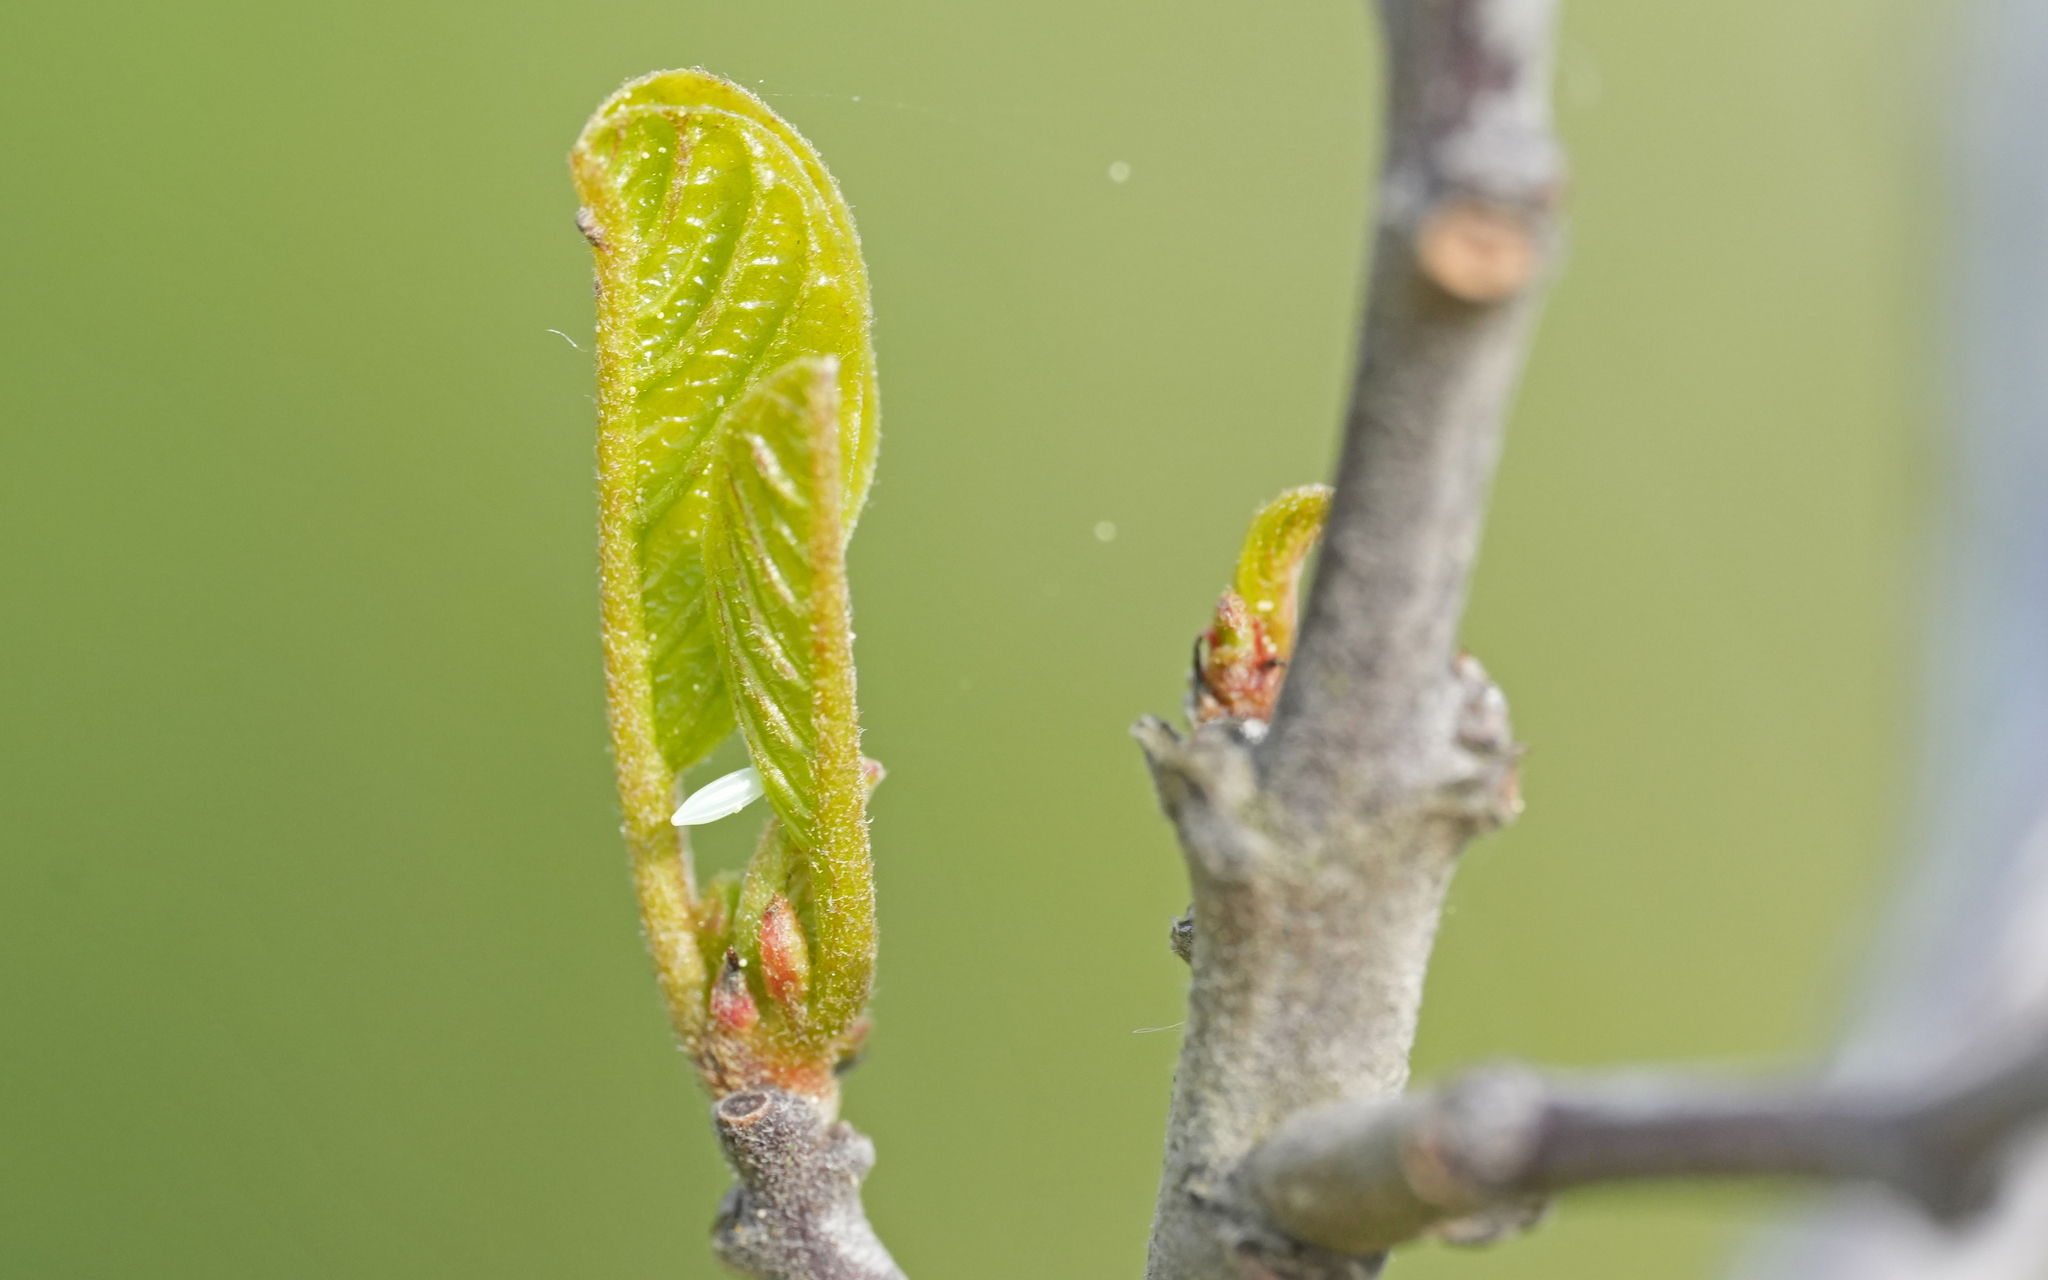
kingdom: Animalia
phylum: Arthropoda
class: Insecta
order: Lepidoptera
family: Pieridae
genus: Gonepteryx
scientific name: Gonepteryx rhamni
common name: Brimstone
